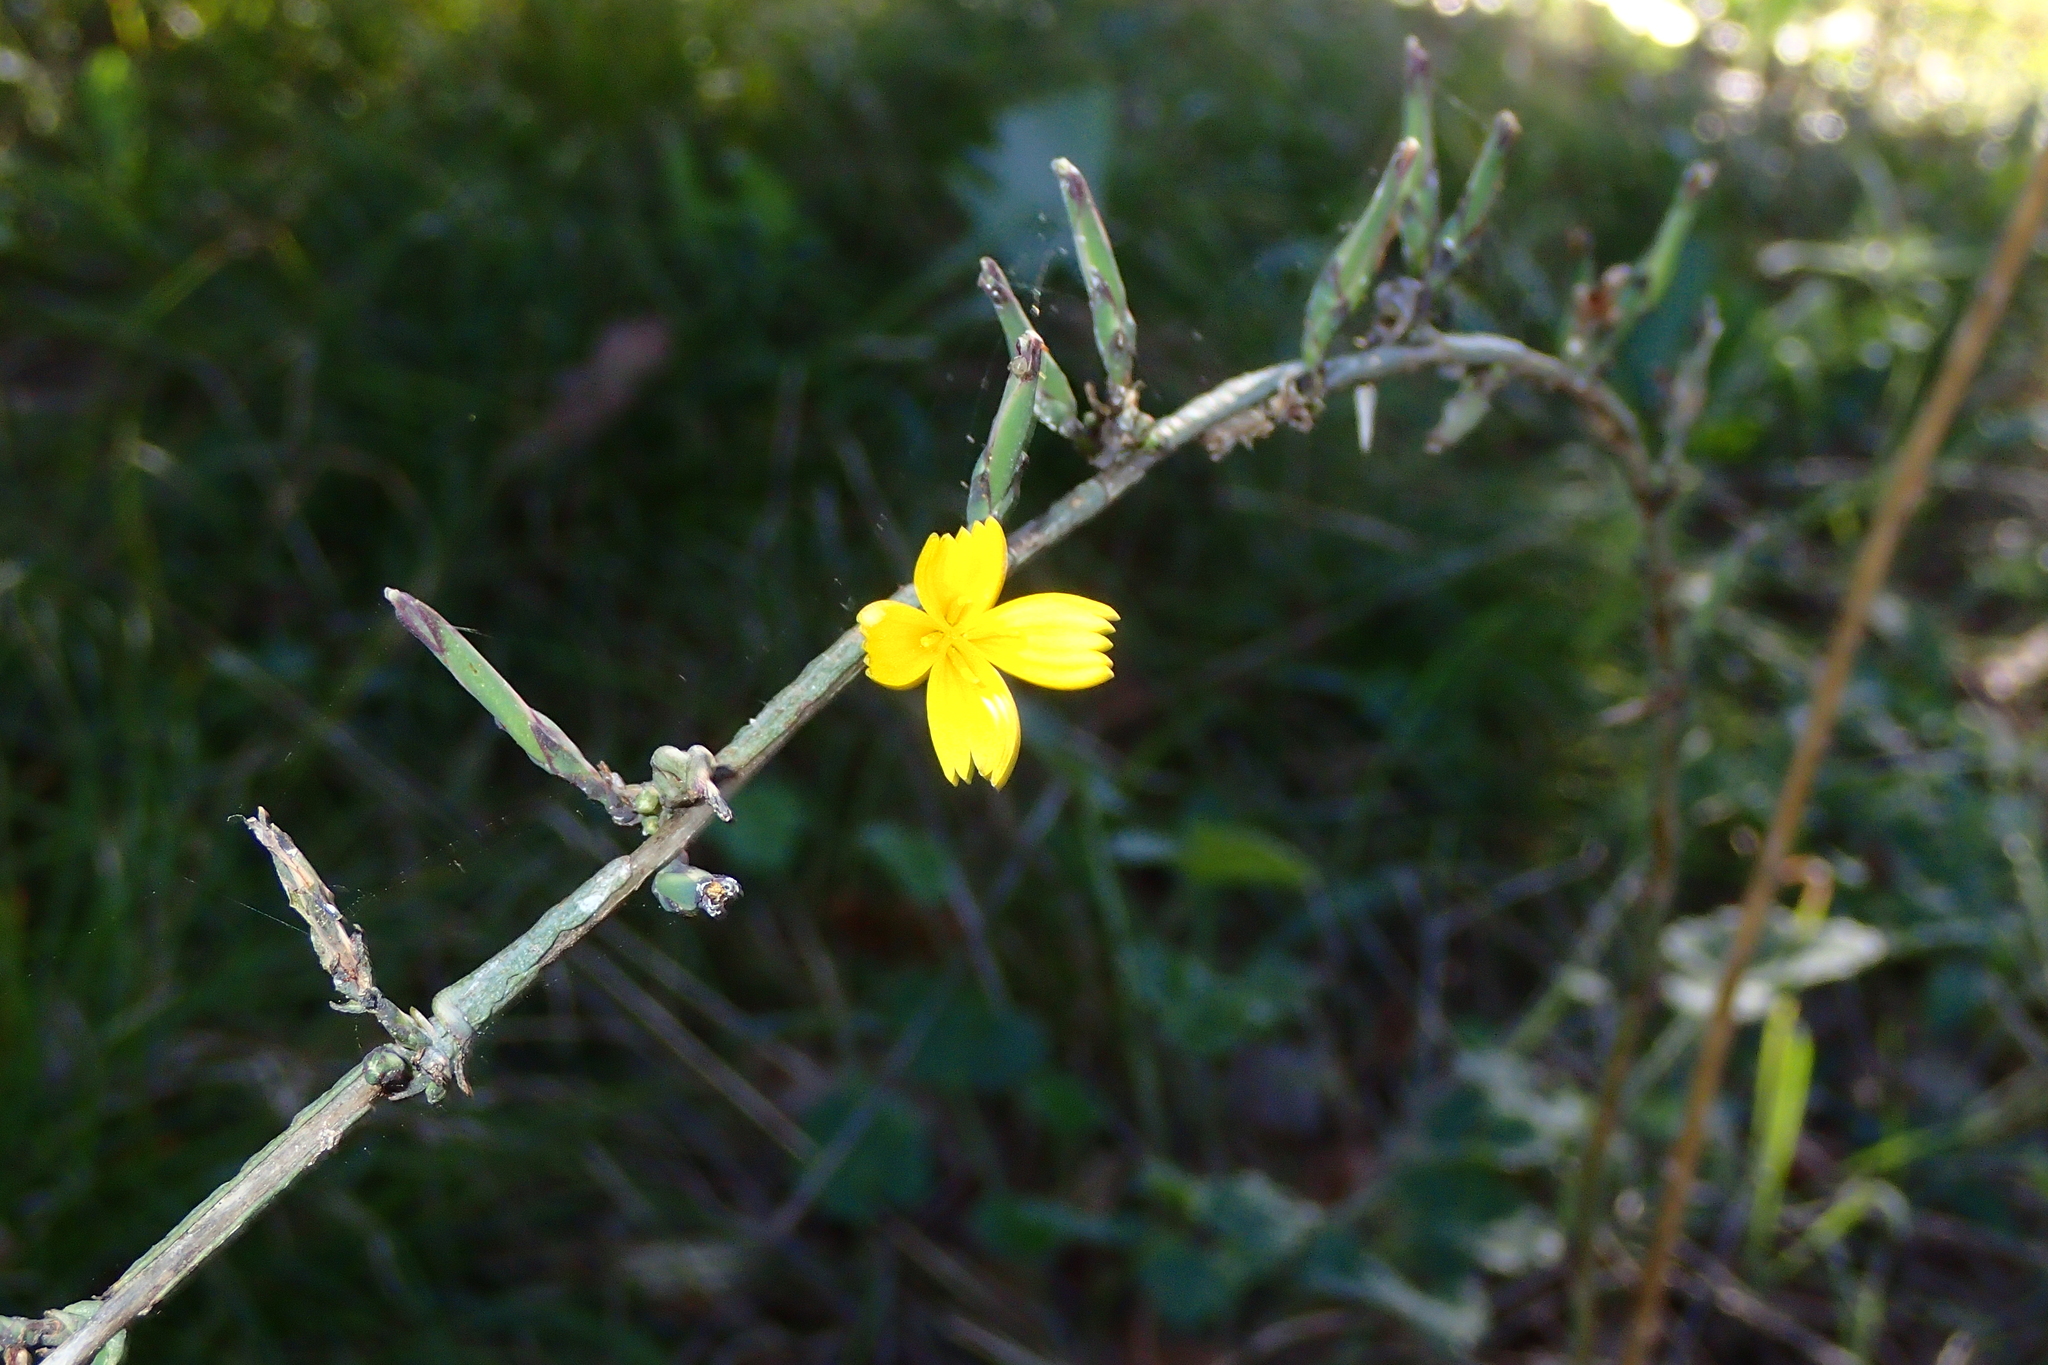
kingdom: Plantae
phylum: Tracheophyta
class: Magnoliopsida
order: Asterales
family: Asteraceae
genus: Lactuca
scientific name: Lactuca viminea
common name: Pliant lettuce
